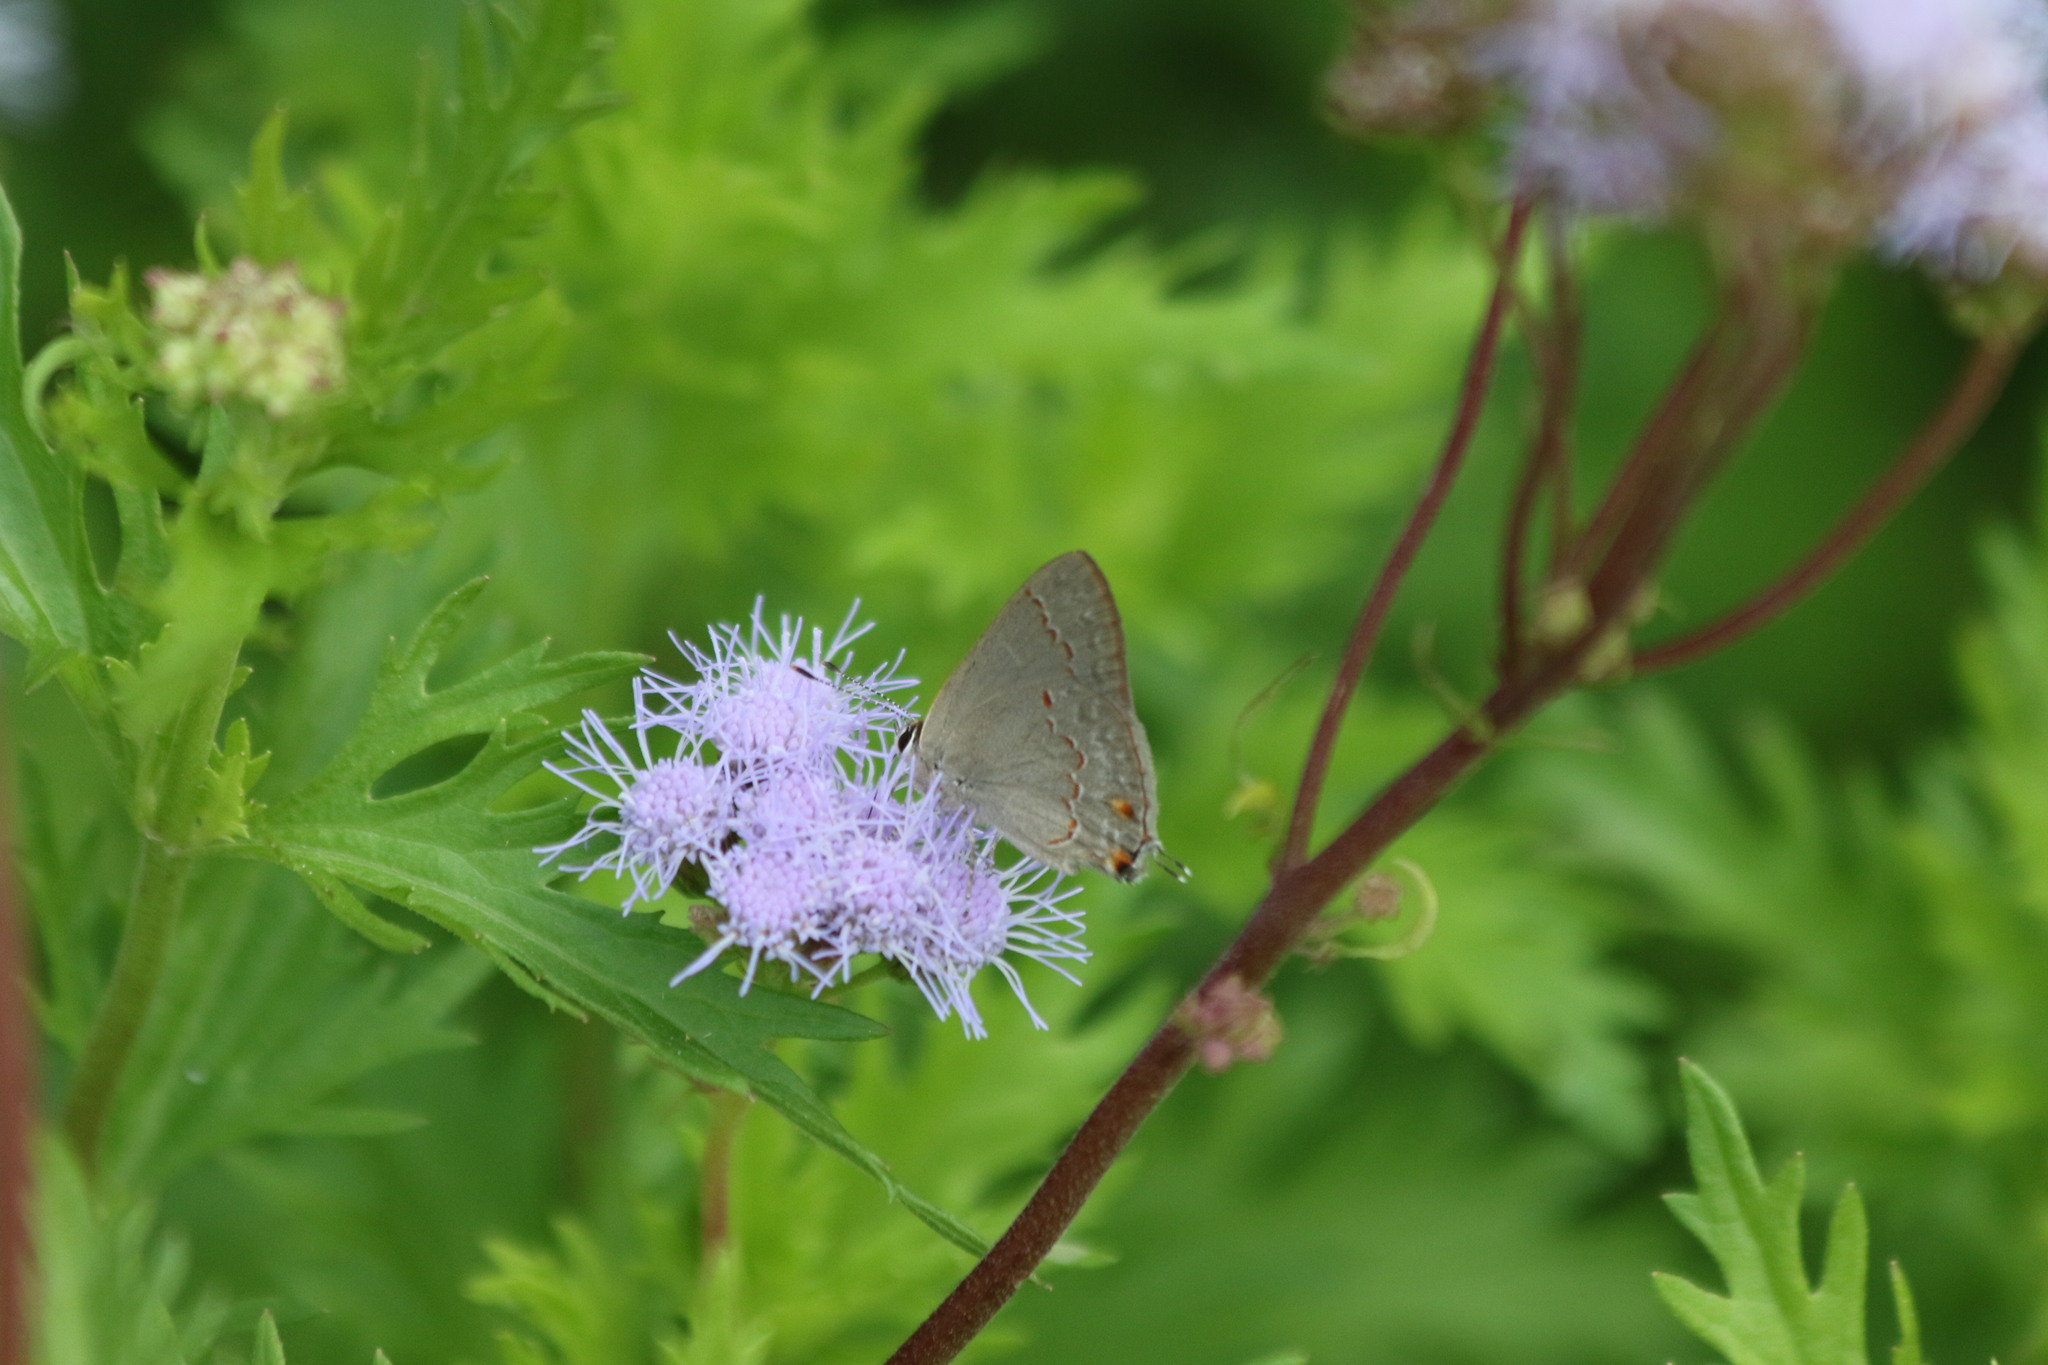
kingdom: Animalia
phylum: Arthropoda
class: Insecta
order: Lepidoptera
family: Lycaenidae
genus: Thecla
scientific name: Thecla rufofusca
